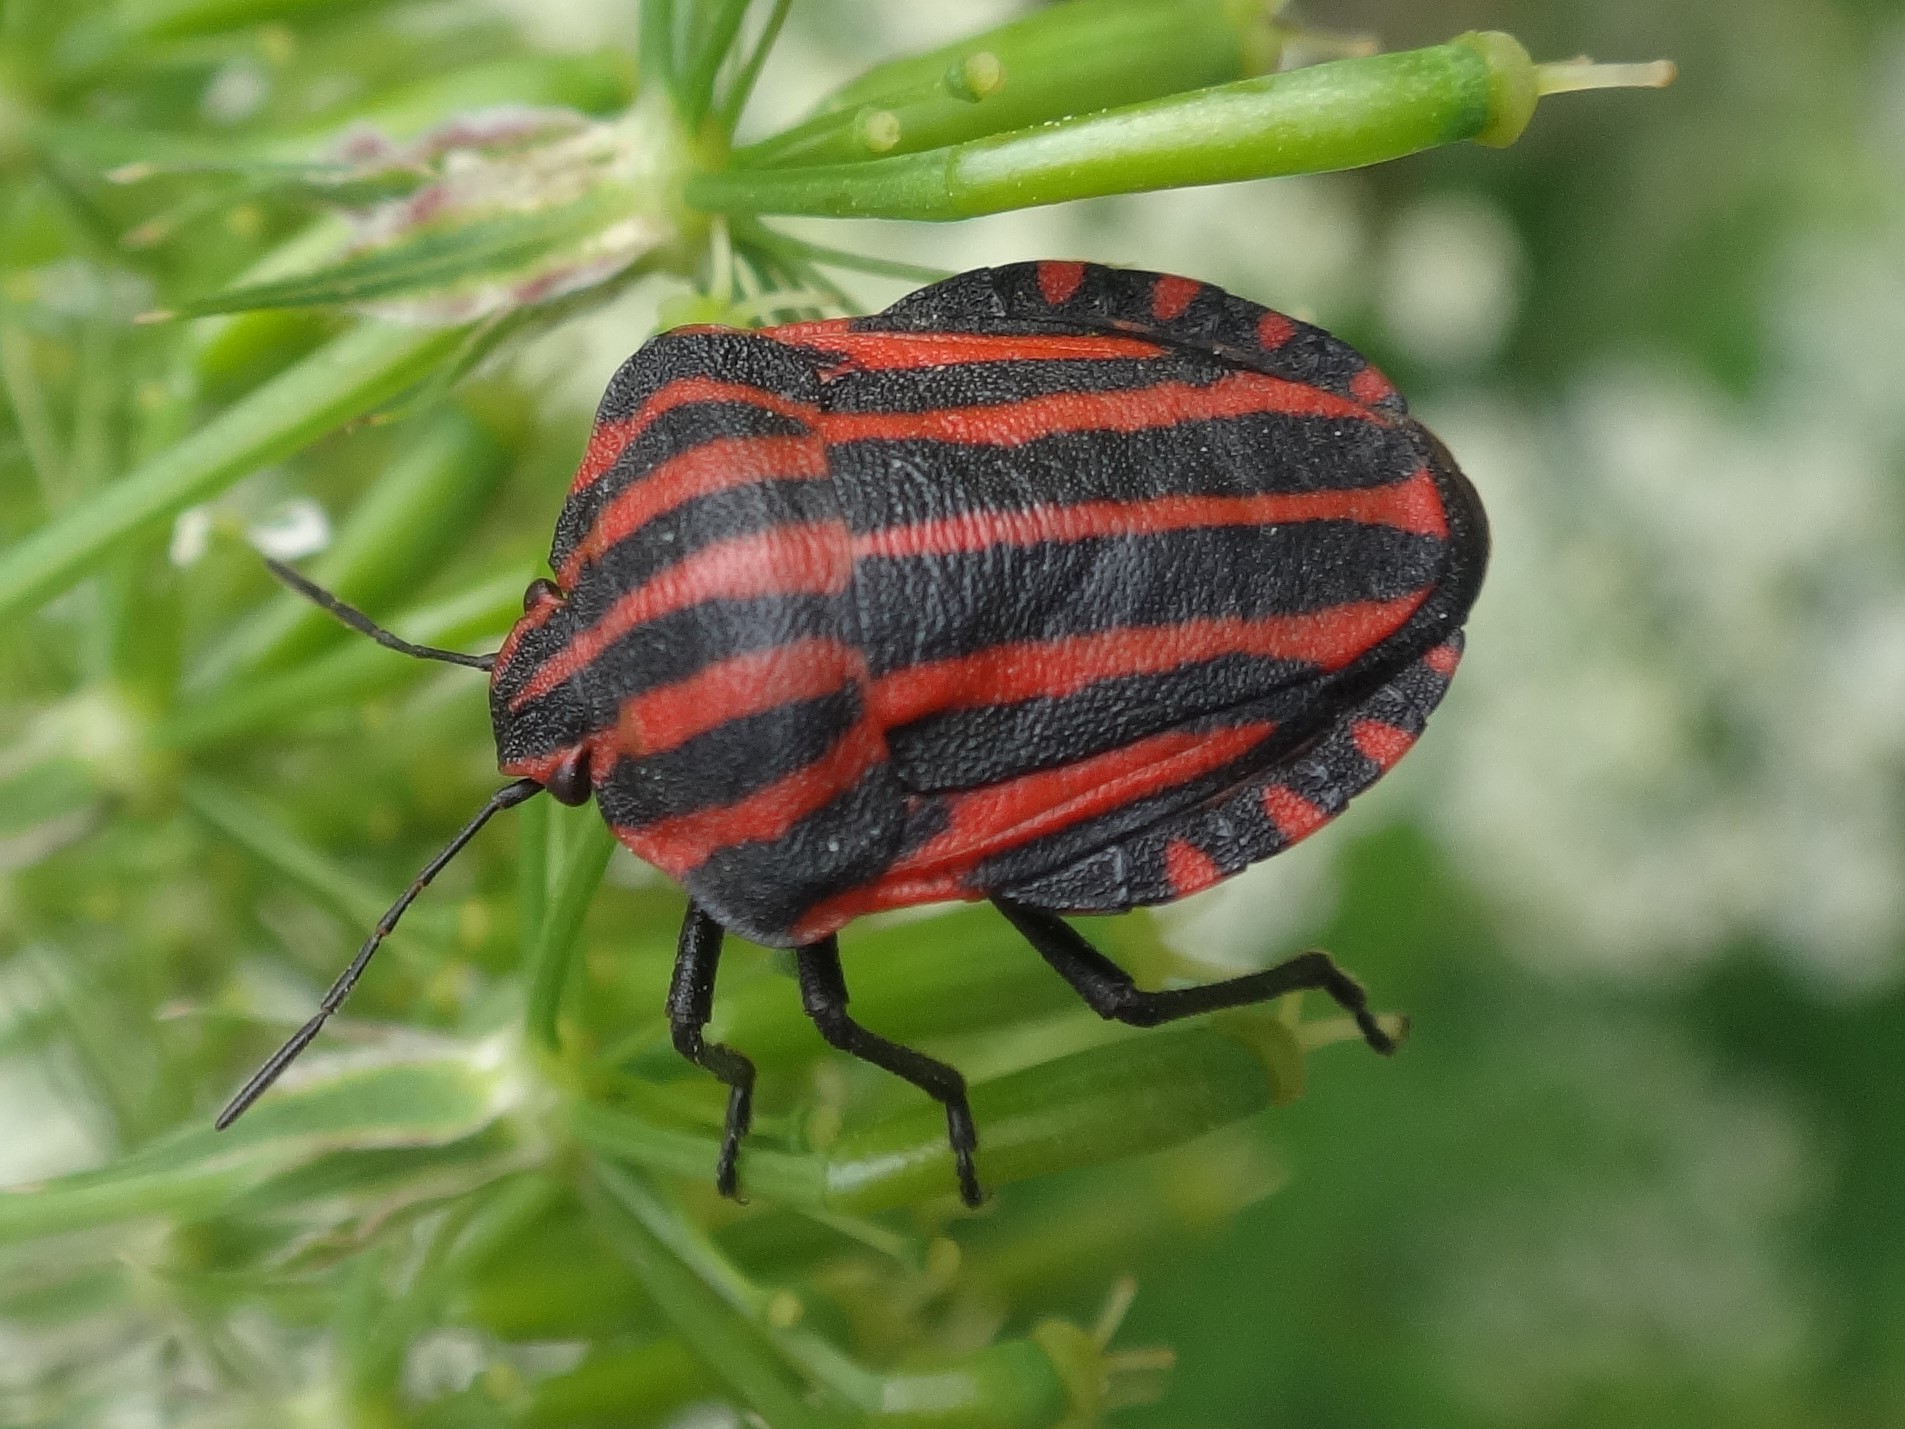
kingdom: Animalia
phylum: Arthropoda
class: Insecta
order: Hemiptera
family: Pentatomidae
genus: Graphosoma
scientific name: Graphosoma italicum
